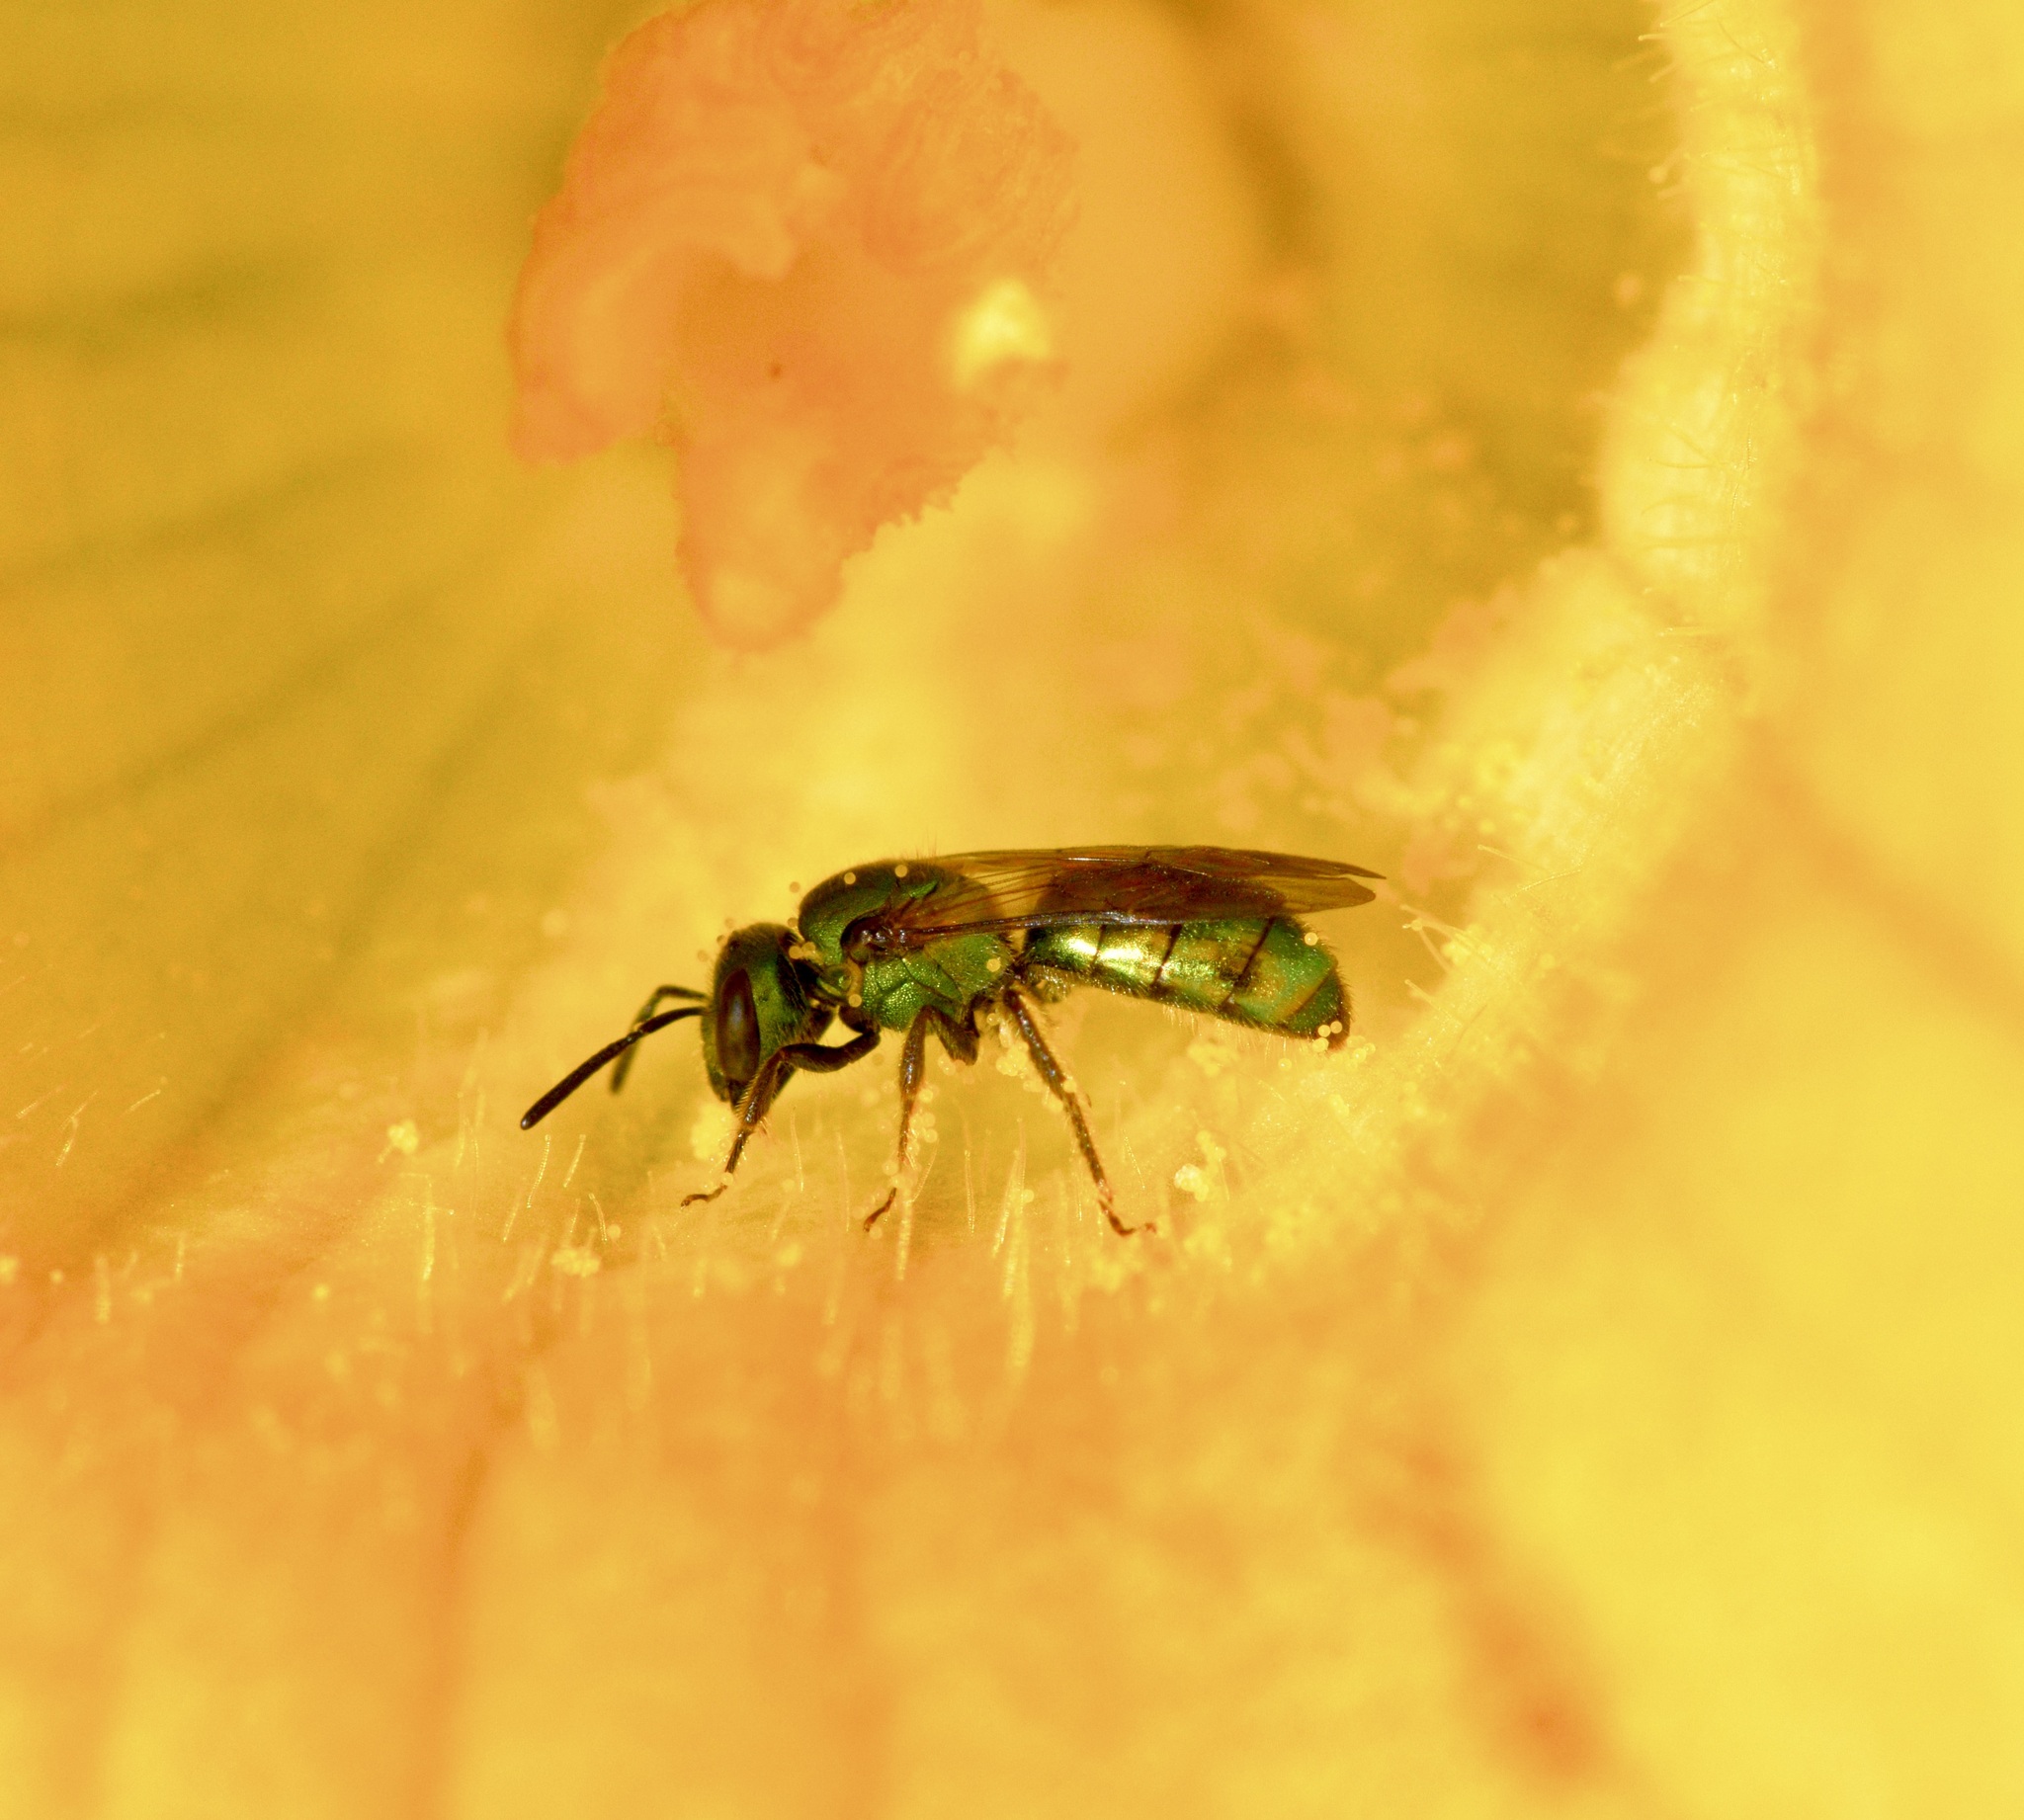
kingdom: Animalia
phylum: Arthropoda
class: Insecta
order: Hymenoptera
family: Halictidae
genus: Augochlora
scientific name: Augochlora pura
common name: Pure green sweat bee
